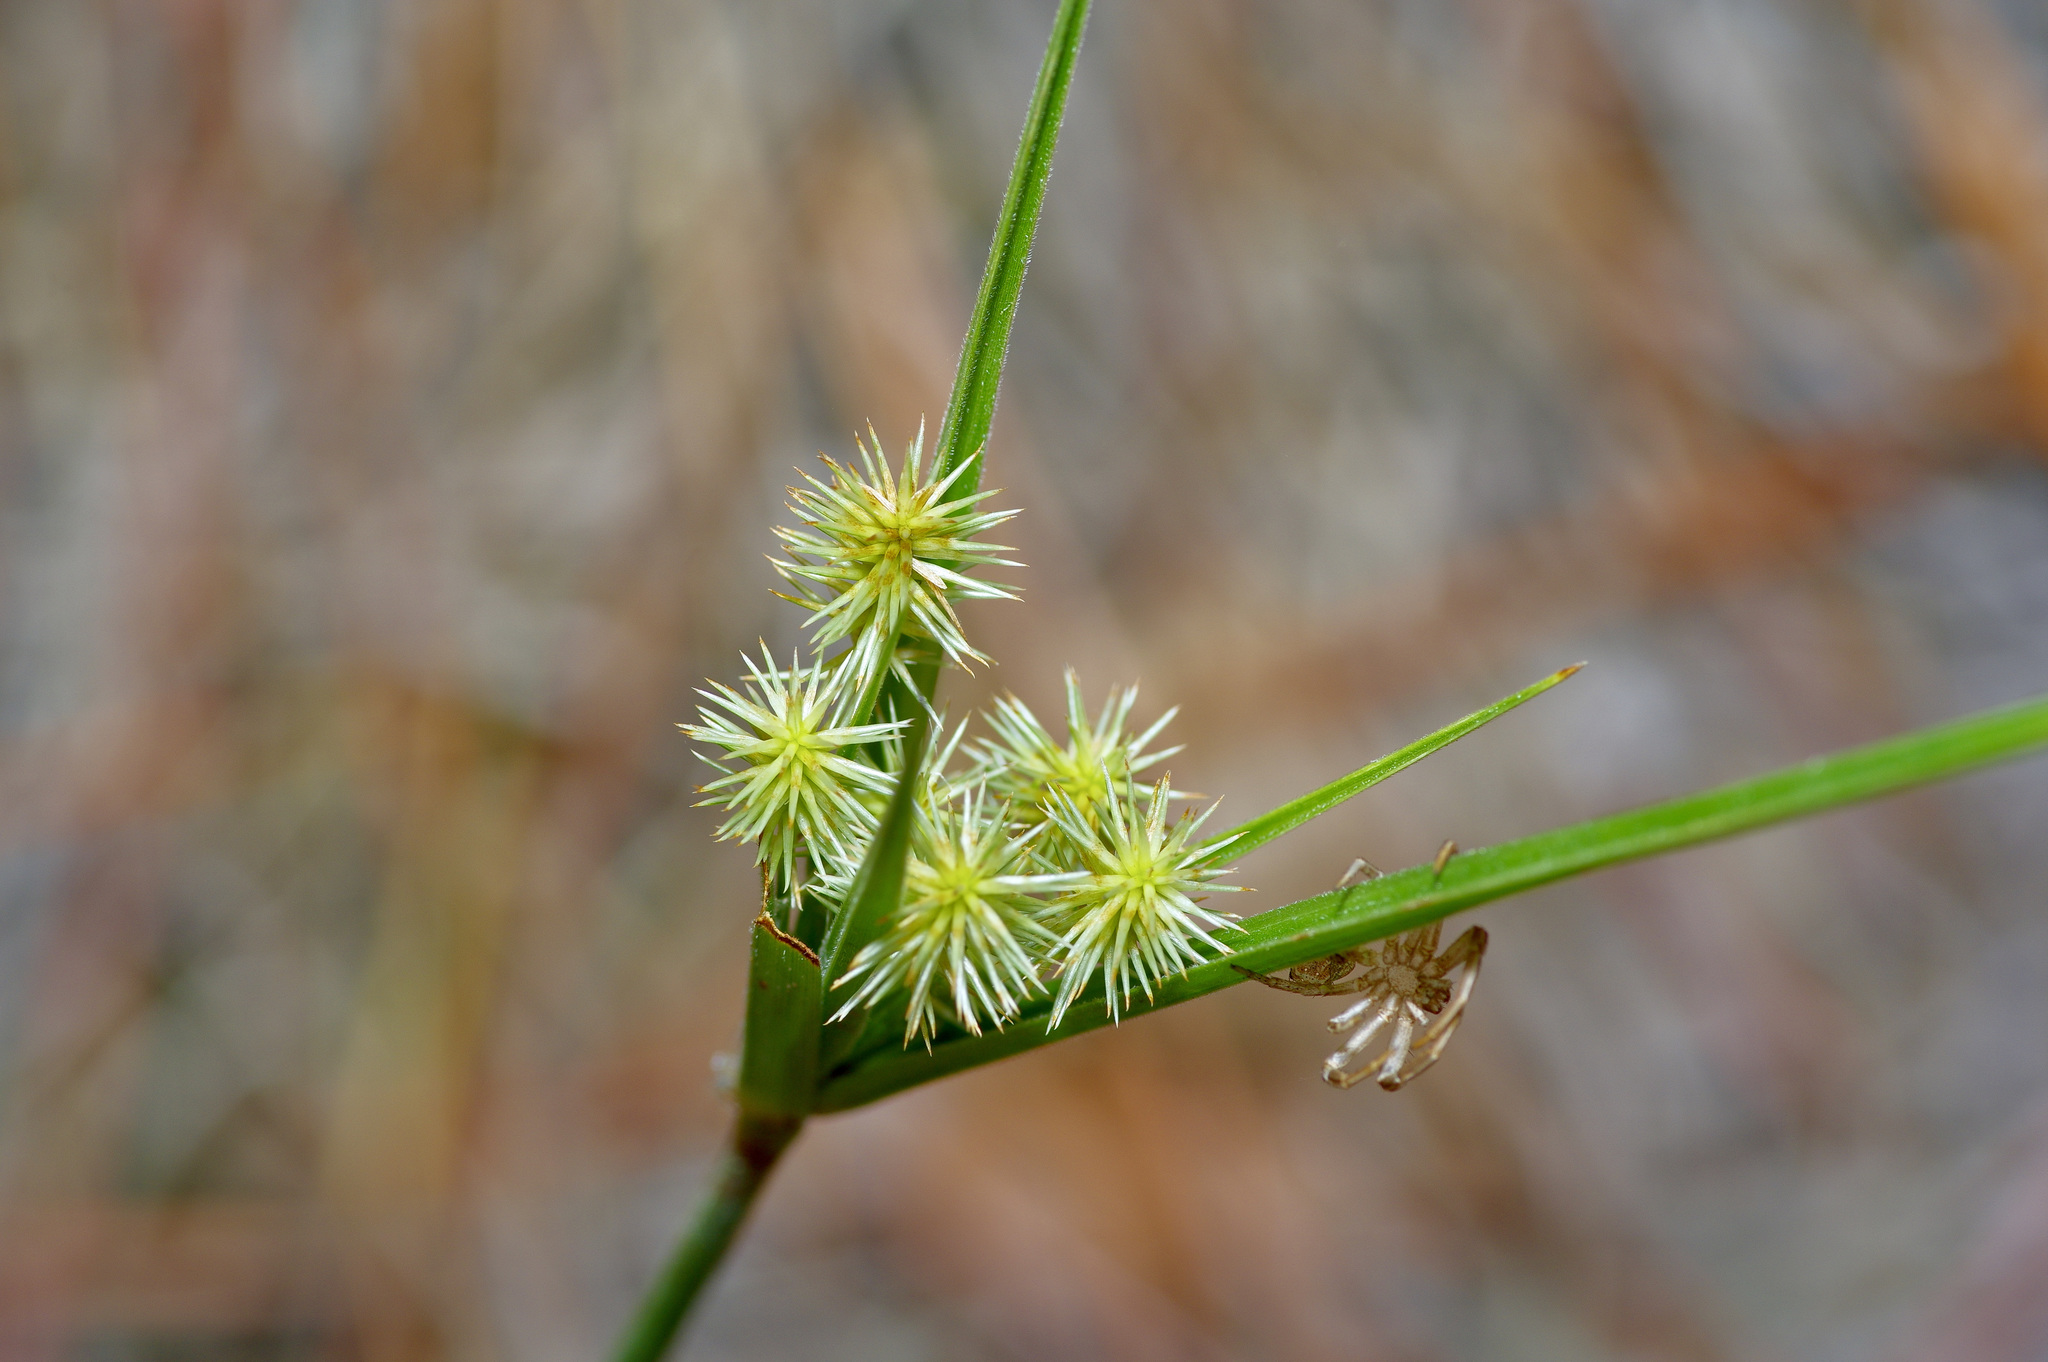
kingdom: Plantae
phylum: Tracheophyta
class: Liliopsida
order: Poales
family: Cyperaceae
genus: Cyperus
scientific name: Cyperus echinatus
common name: Teasel sedge
